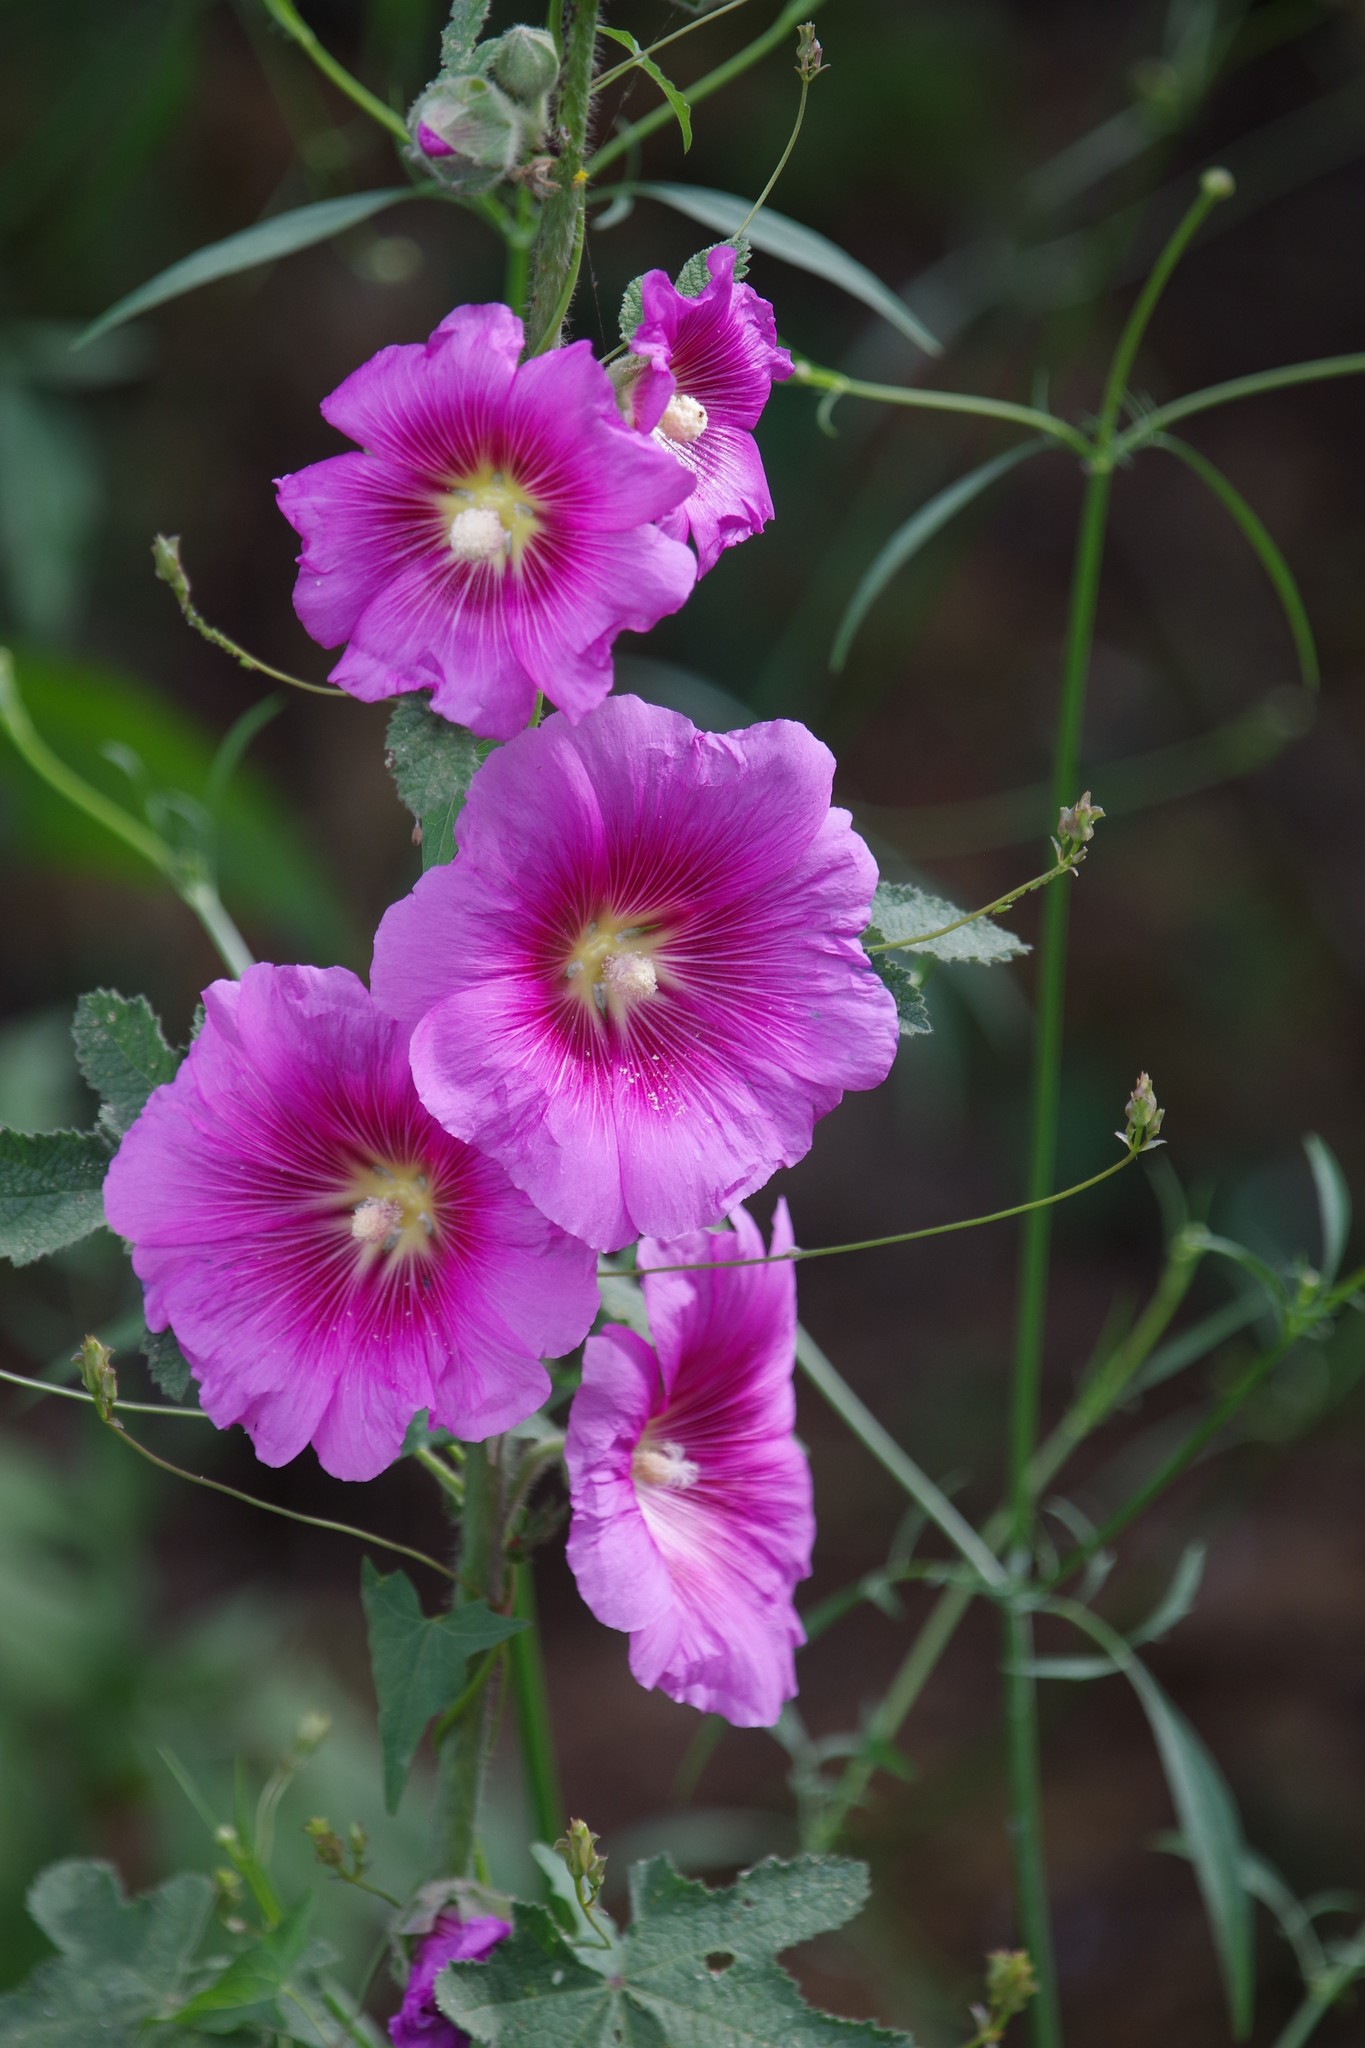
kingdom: Plantae
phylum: Tracheophyta
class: Magnoliopsida
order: Malvales
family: Malvaceae
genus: Alcea
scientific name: Alcea setosa
